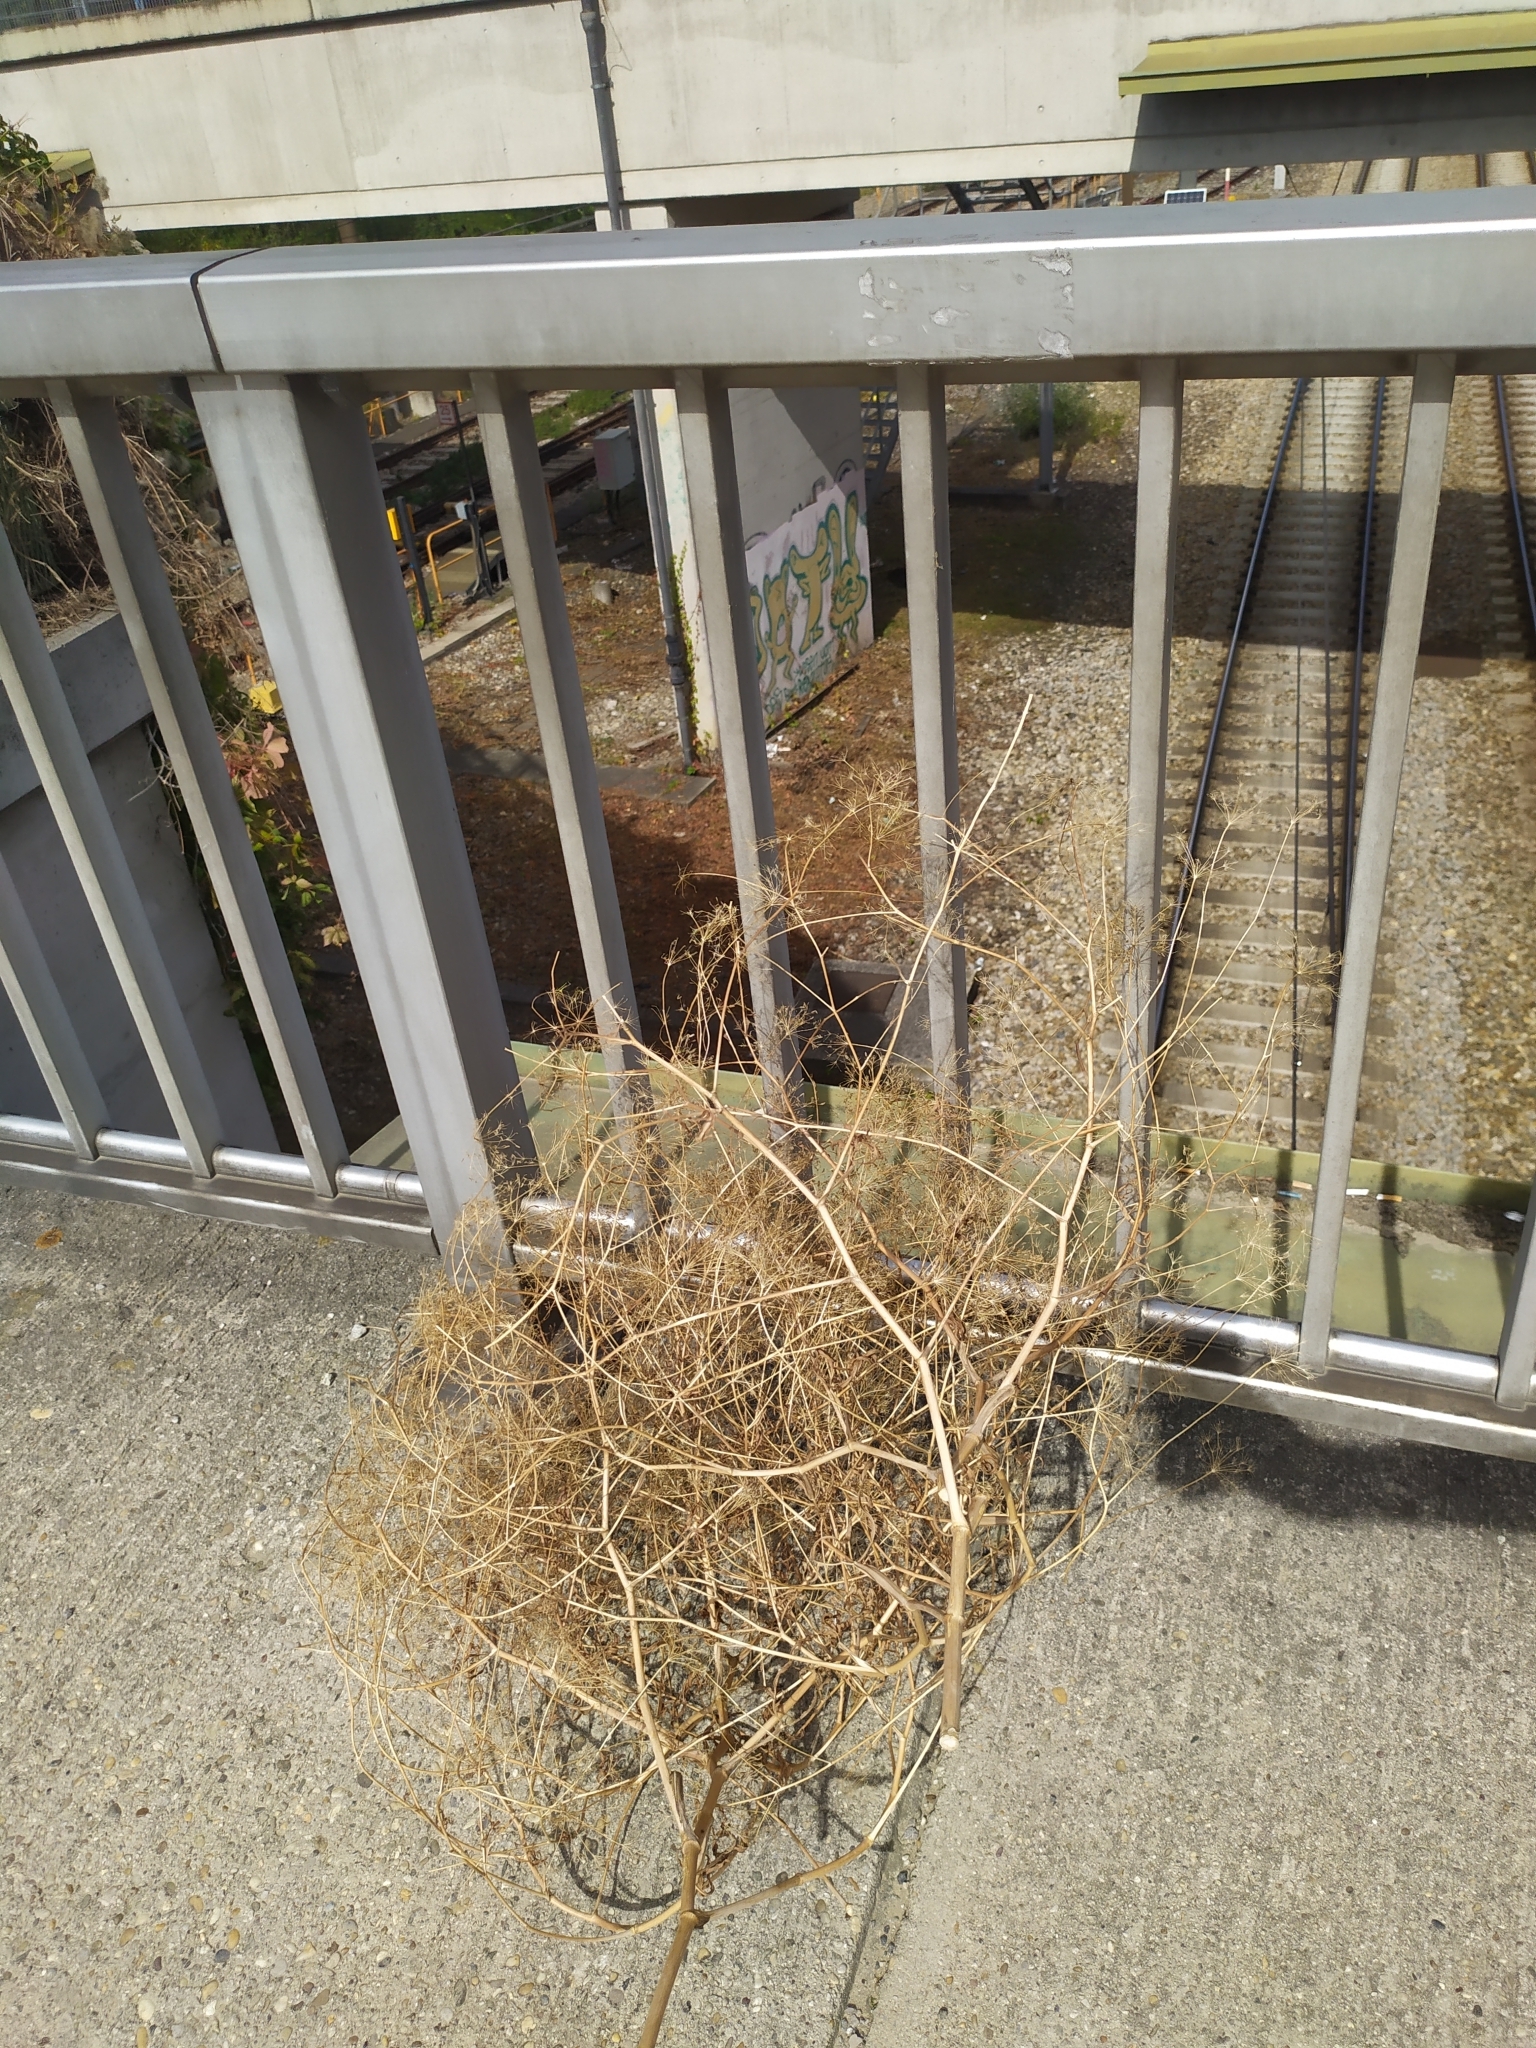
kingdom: Plantae
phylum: Tracheophyta
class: Magnoliopsida
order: Apiales
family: Apiaceae
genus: Falcaria
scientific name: Falcaria vulgaris
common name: Longleaf
